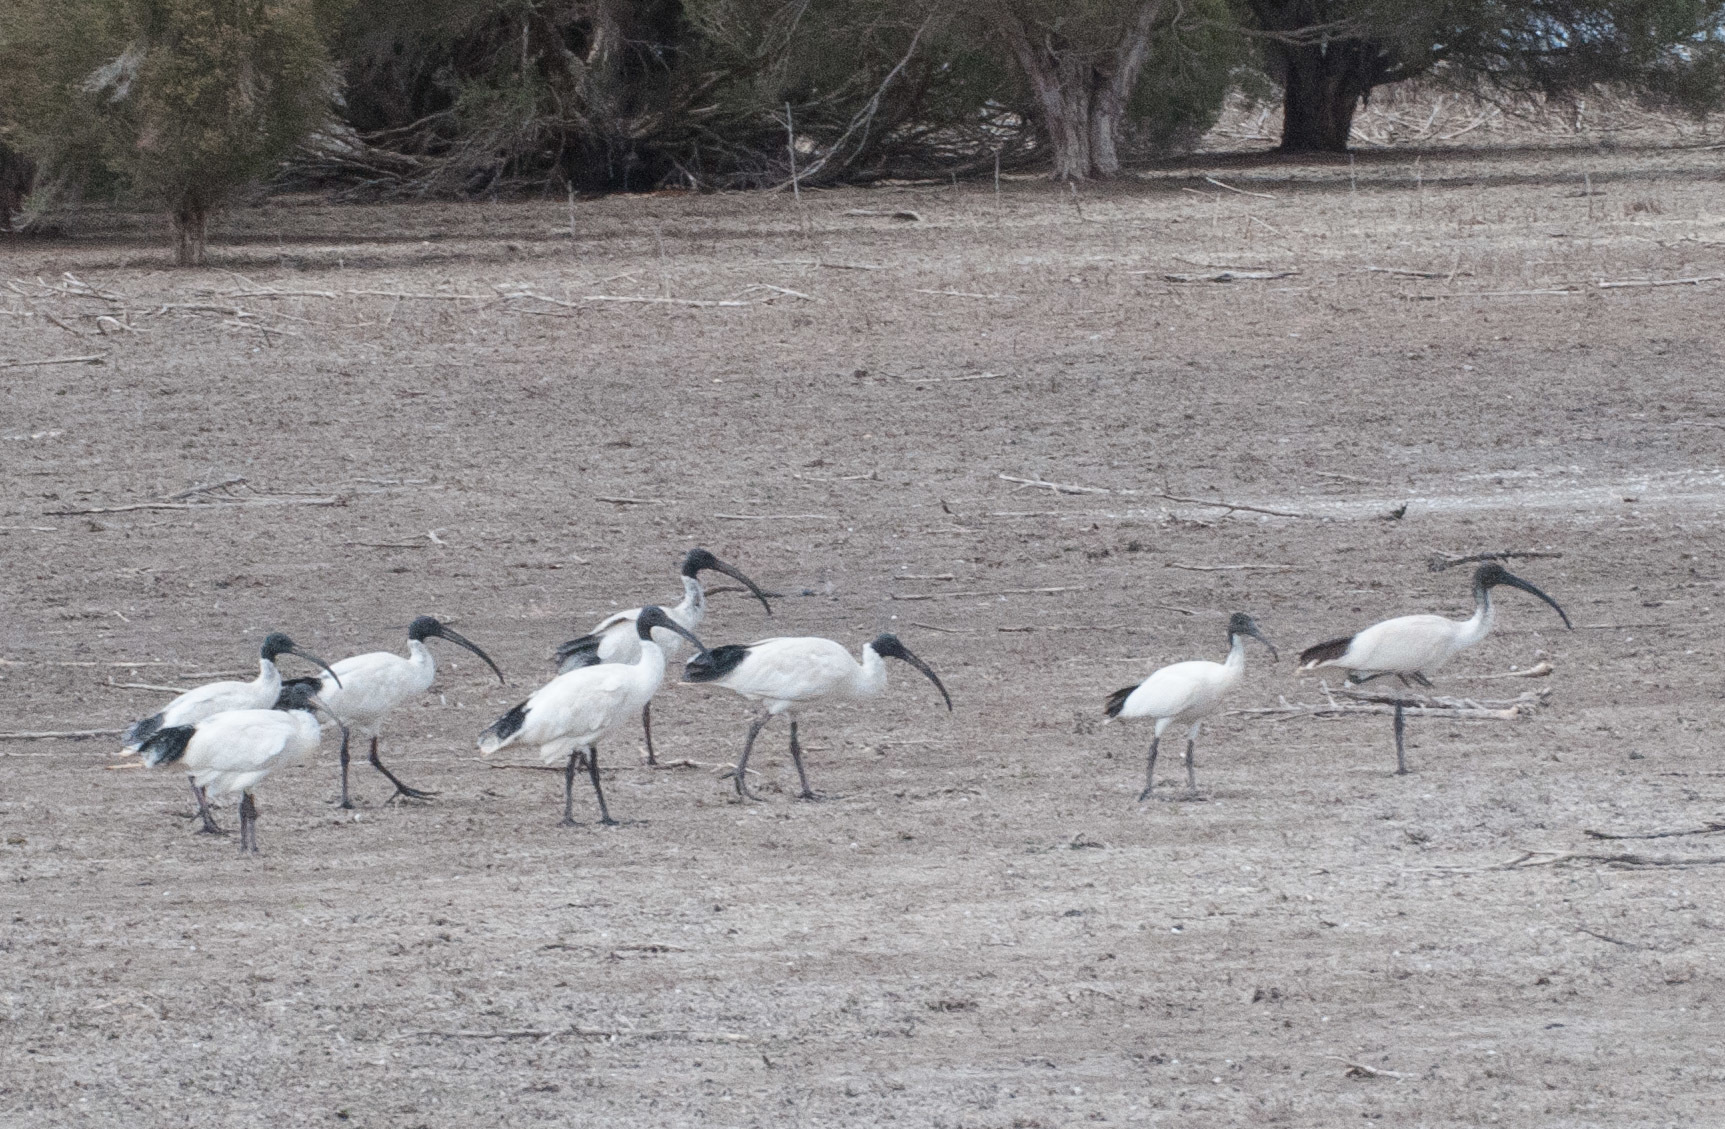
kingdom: Animalia
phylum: Chordata
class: Aves
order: Pelecaniformes
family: Threskiornithidae
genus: Threskiornis
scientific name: Threskiornis molucca
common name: Australian white ibis
